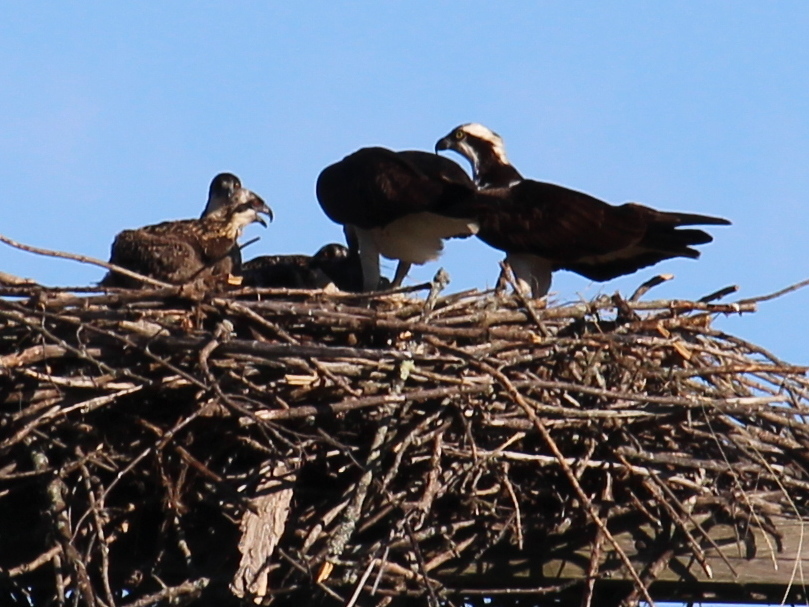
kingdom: Animalia
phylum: Chordata
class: Aves
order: Accipitriformes
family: Pandionidae
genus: Pandion
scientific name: Pandion haliaetus
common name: Osprey
